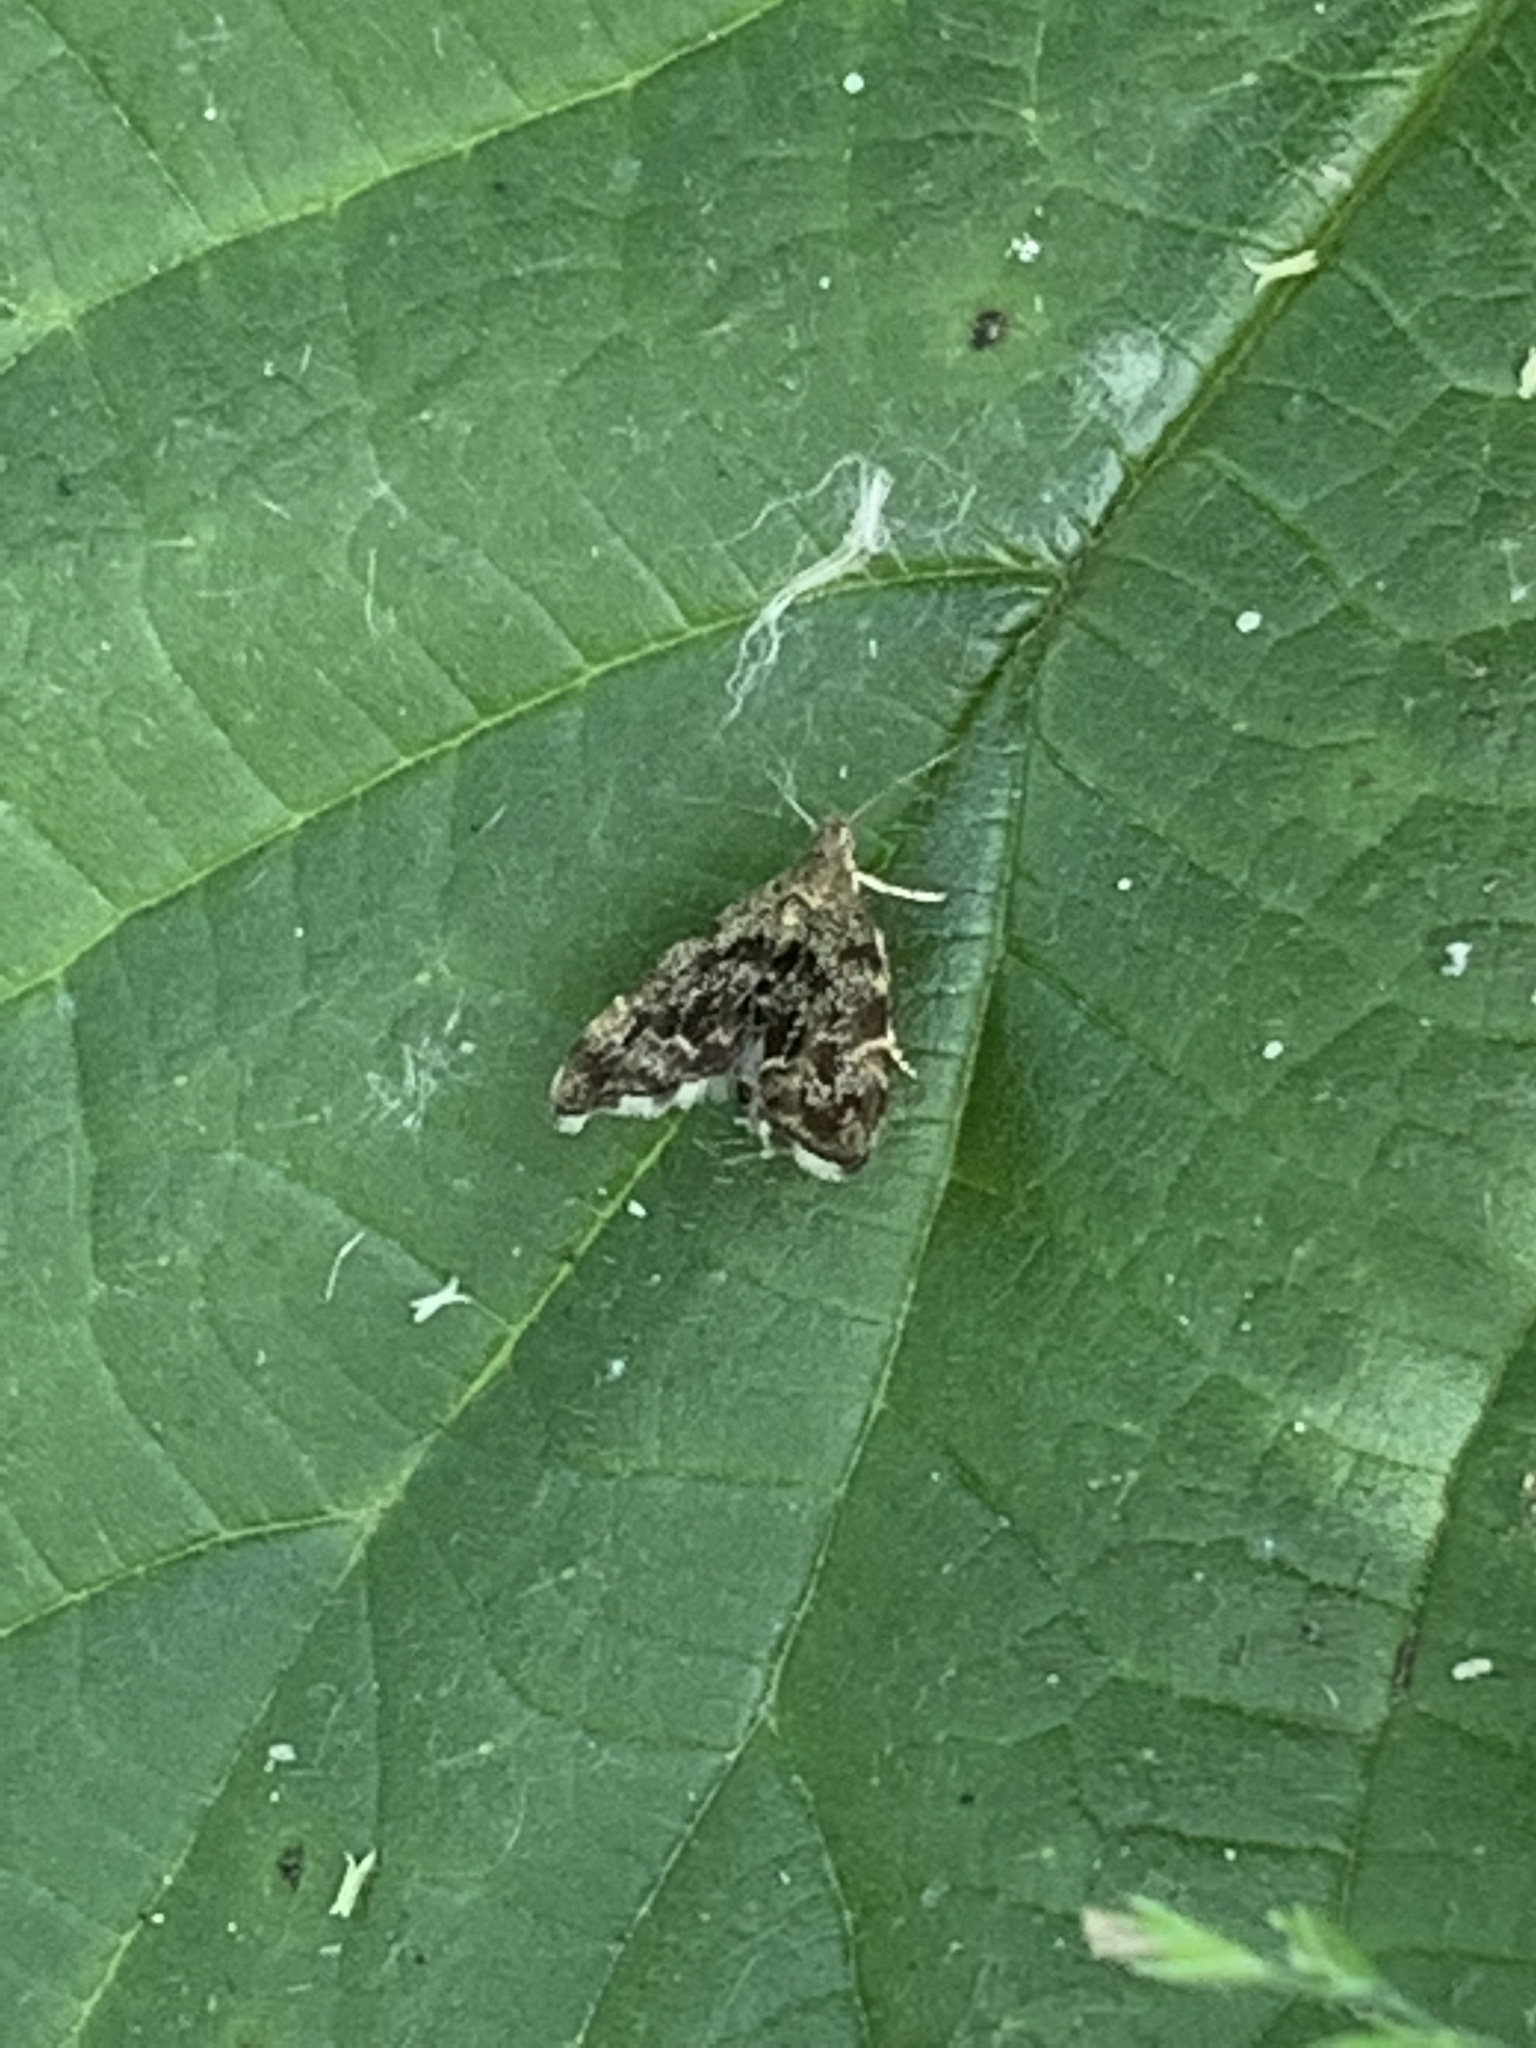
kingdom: Animalia
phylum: Arthropoda
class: Insecta
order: Lepidoptera
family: Choreutidae
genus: Anthophila
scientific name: Anthophila fabriciana
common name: Nettle-tap
